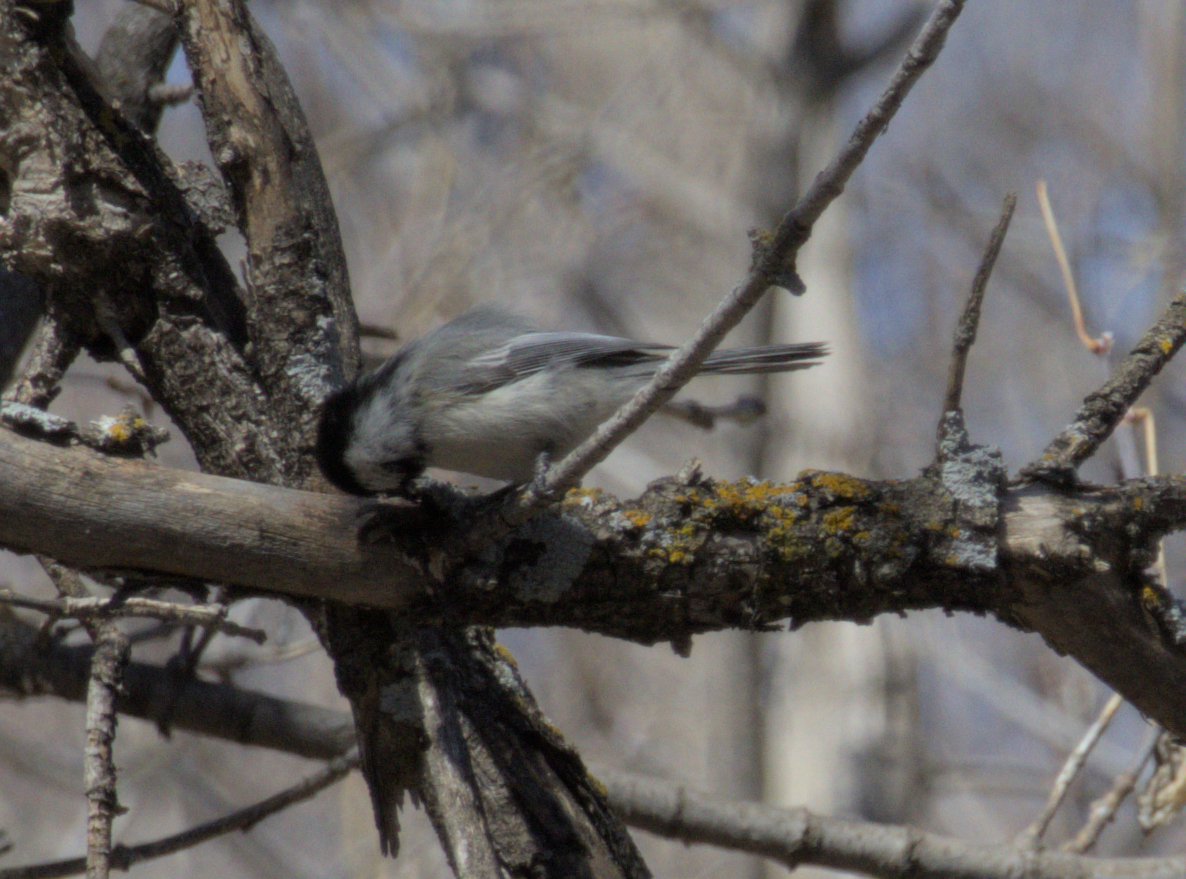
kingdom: Animalia
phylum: Chordata
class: Aves
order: Passeriformes
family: Paridae
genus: Poecile
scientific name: Poecile atricapillus
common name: Black-capped chickadee
